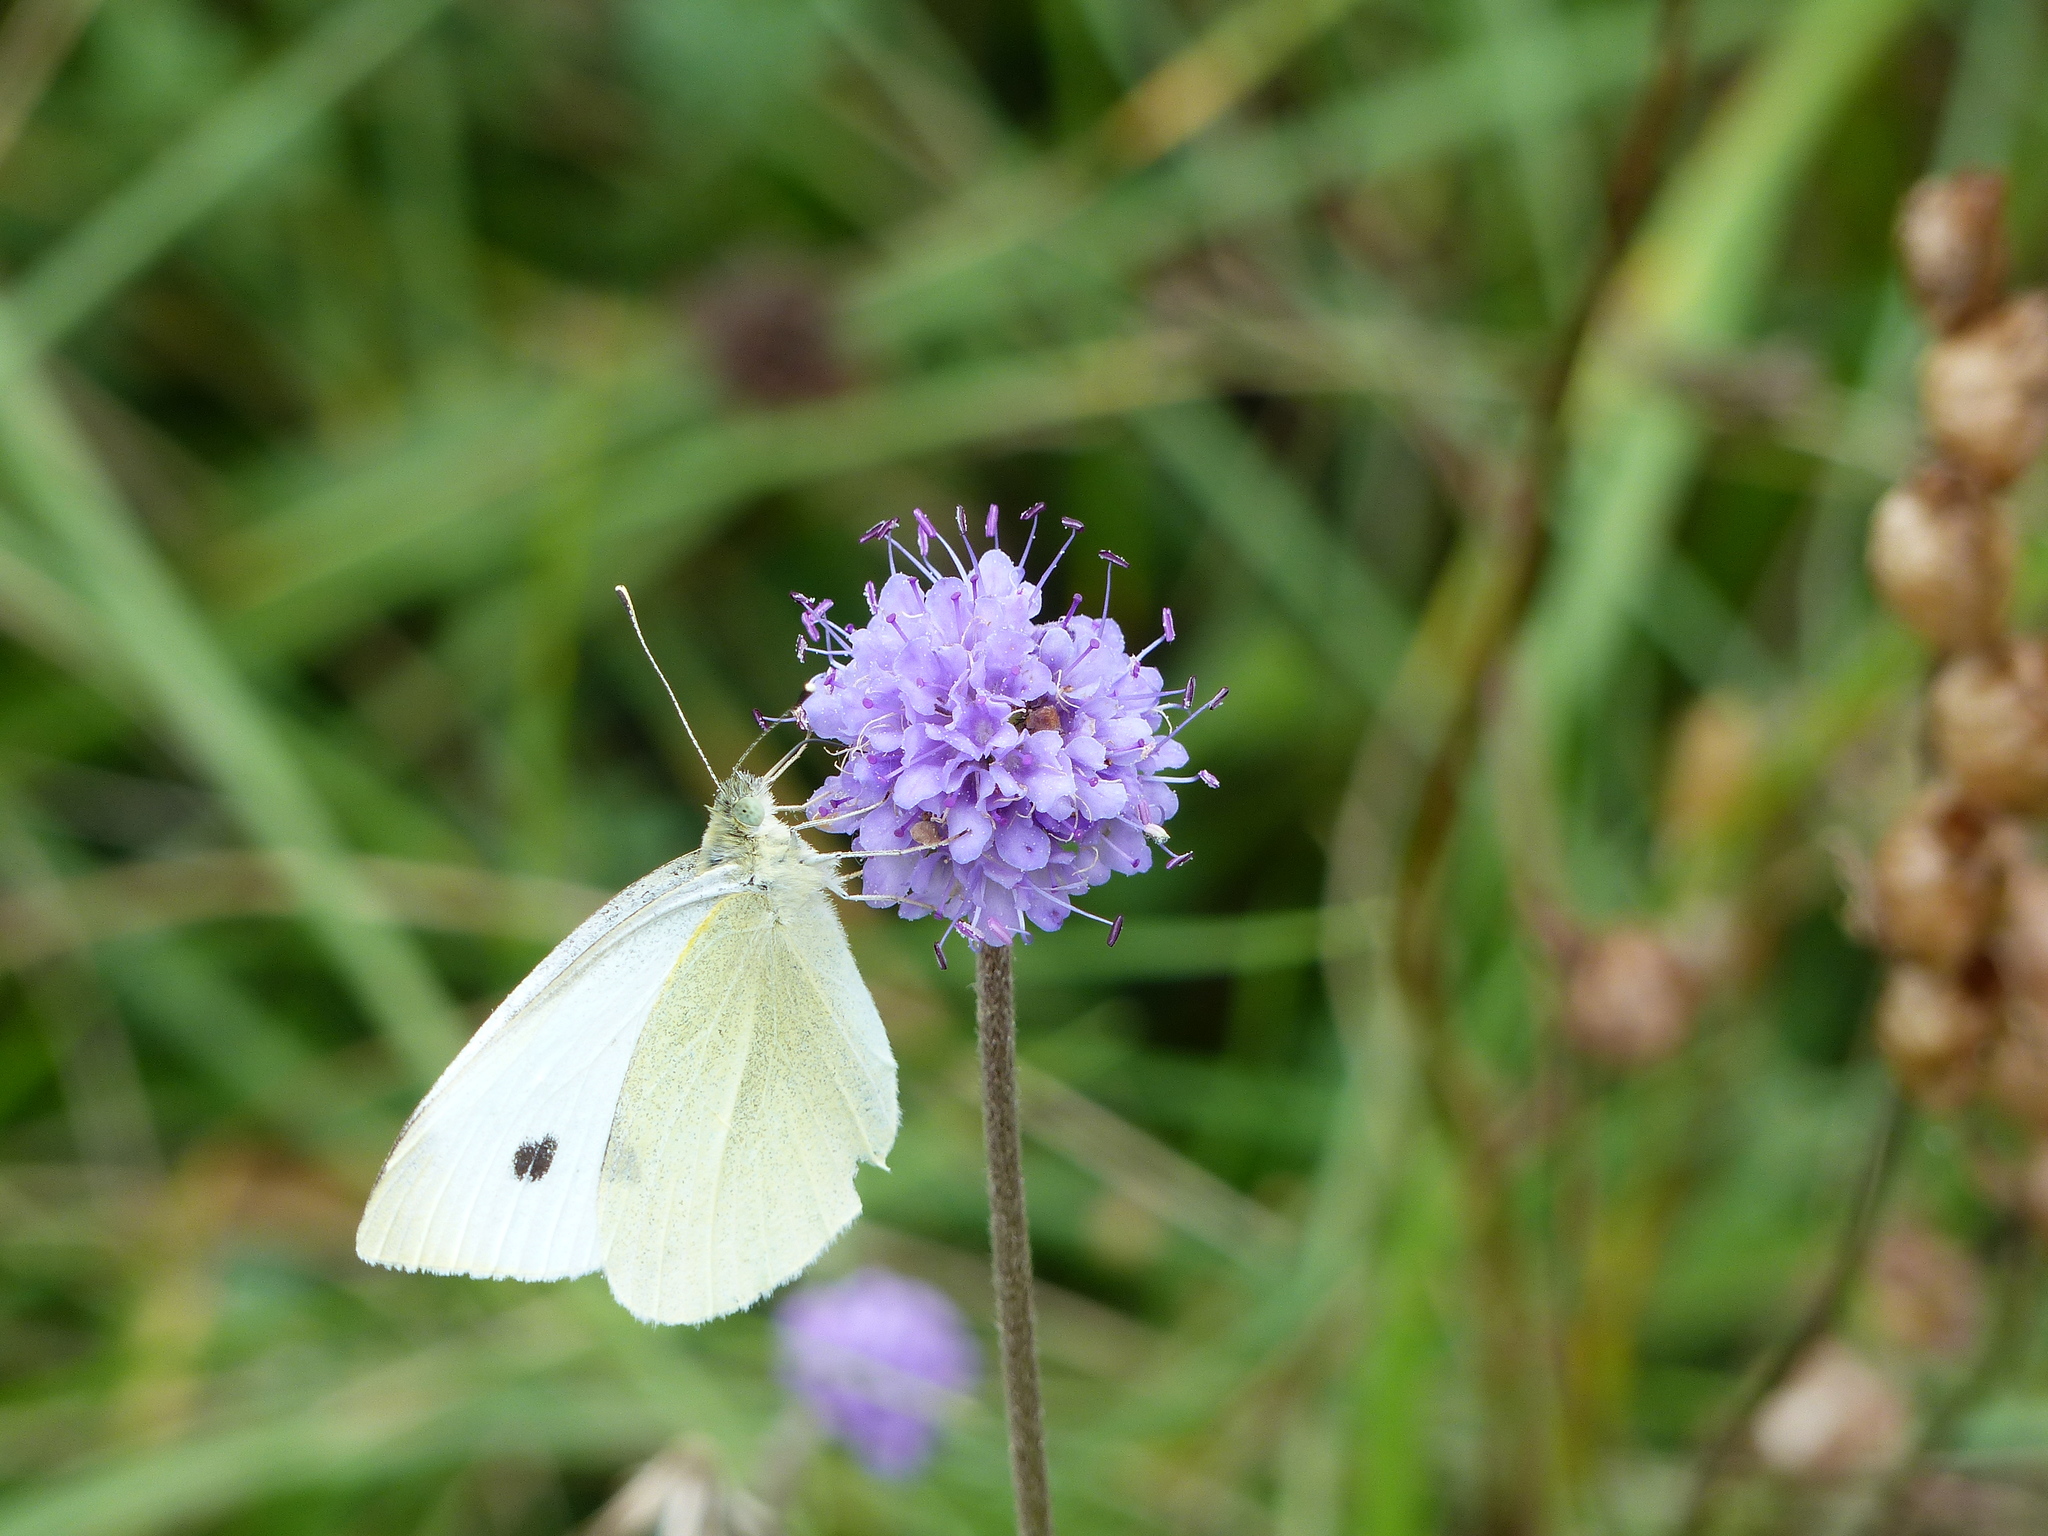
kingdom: Animalia
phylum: Arthropoda
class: Insecta
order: Lepidoptera
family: Pieridae
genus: Pieris
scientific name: Pieris rapae
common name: Small white
